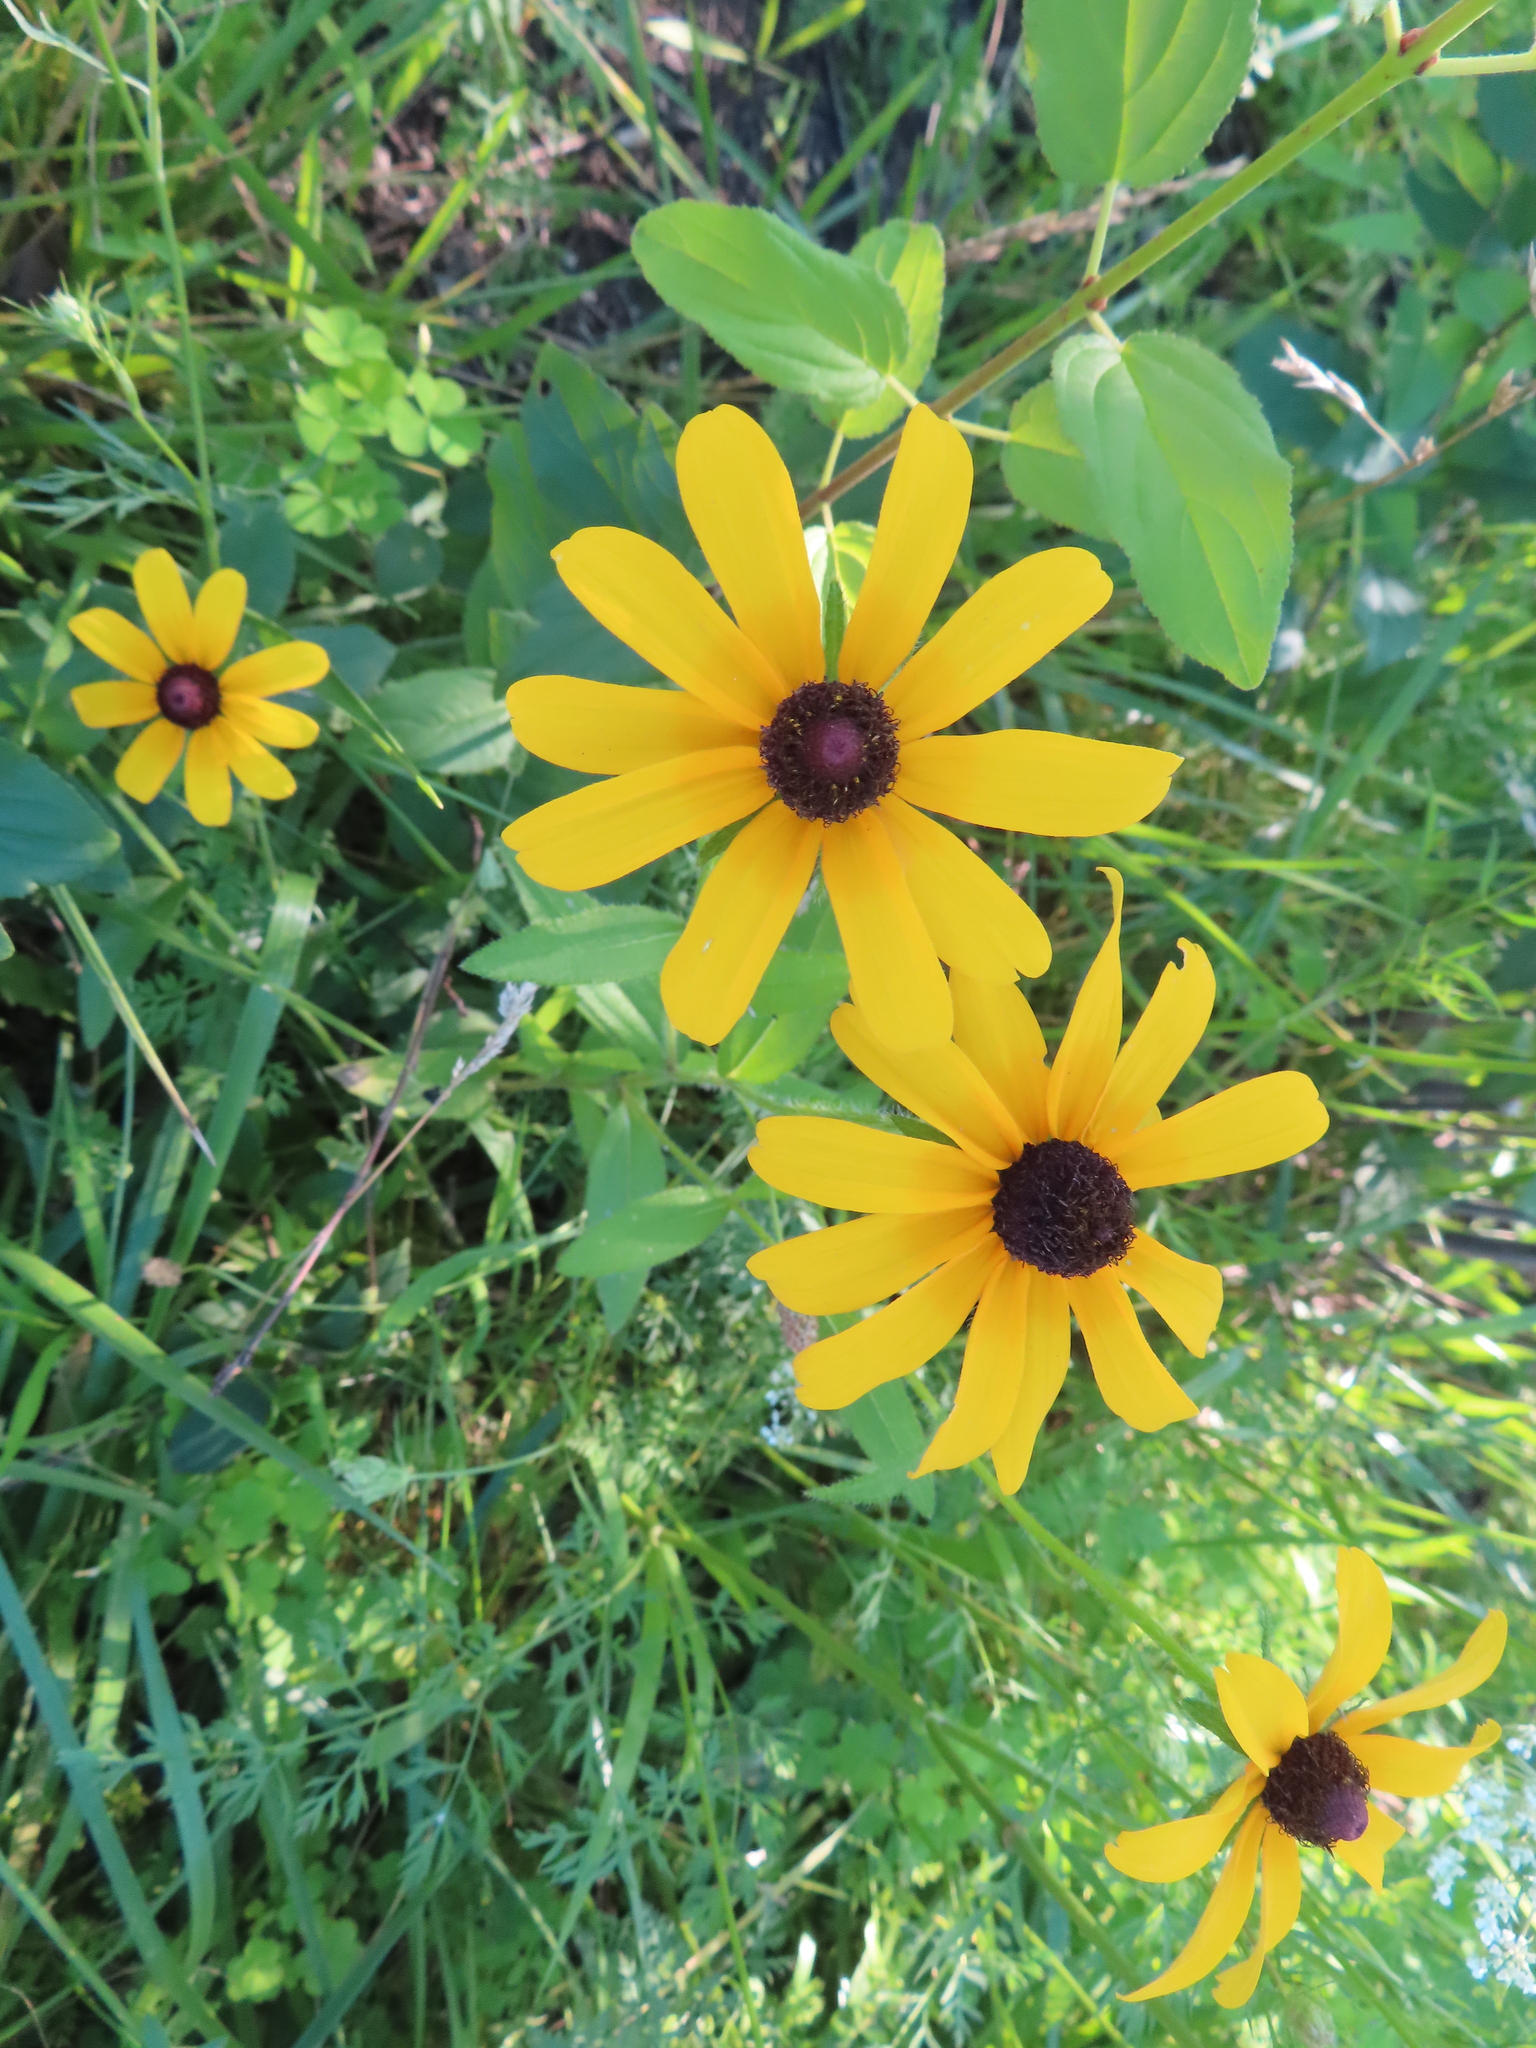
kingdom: Plantae
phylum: Tracheophyta
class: Magnoliopsida
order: Asterales
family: Asteraceae
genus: Rudbeckia
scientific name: Rudbeckia hirta
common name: Black-eyed-susan
